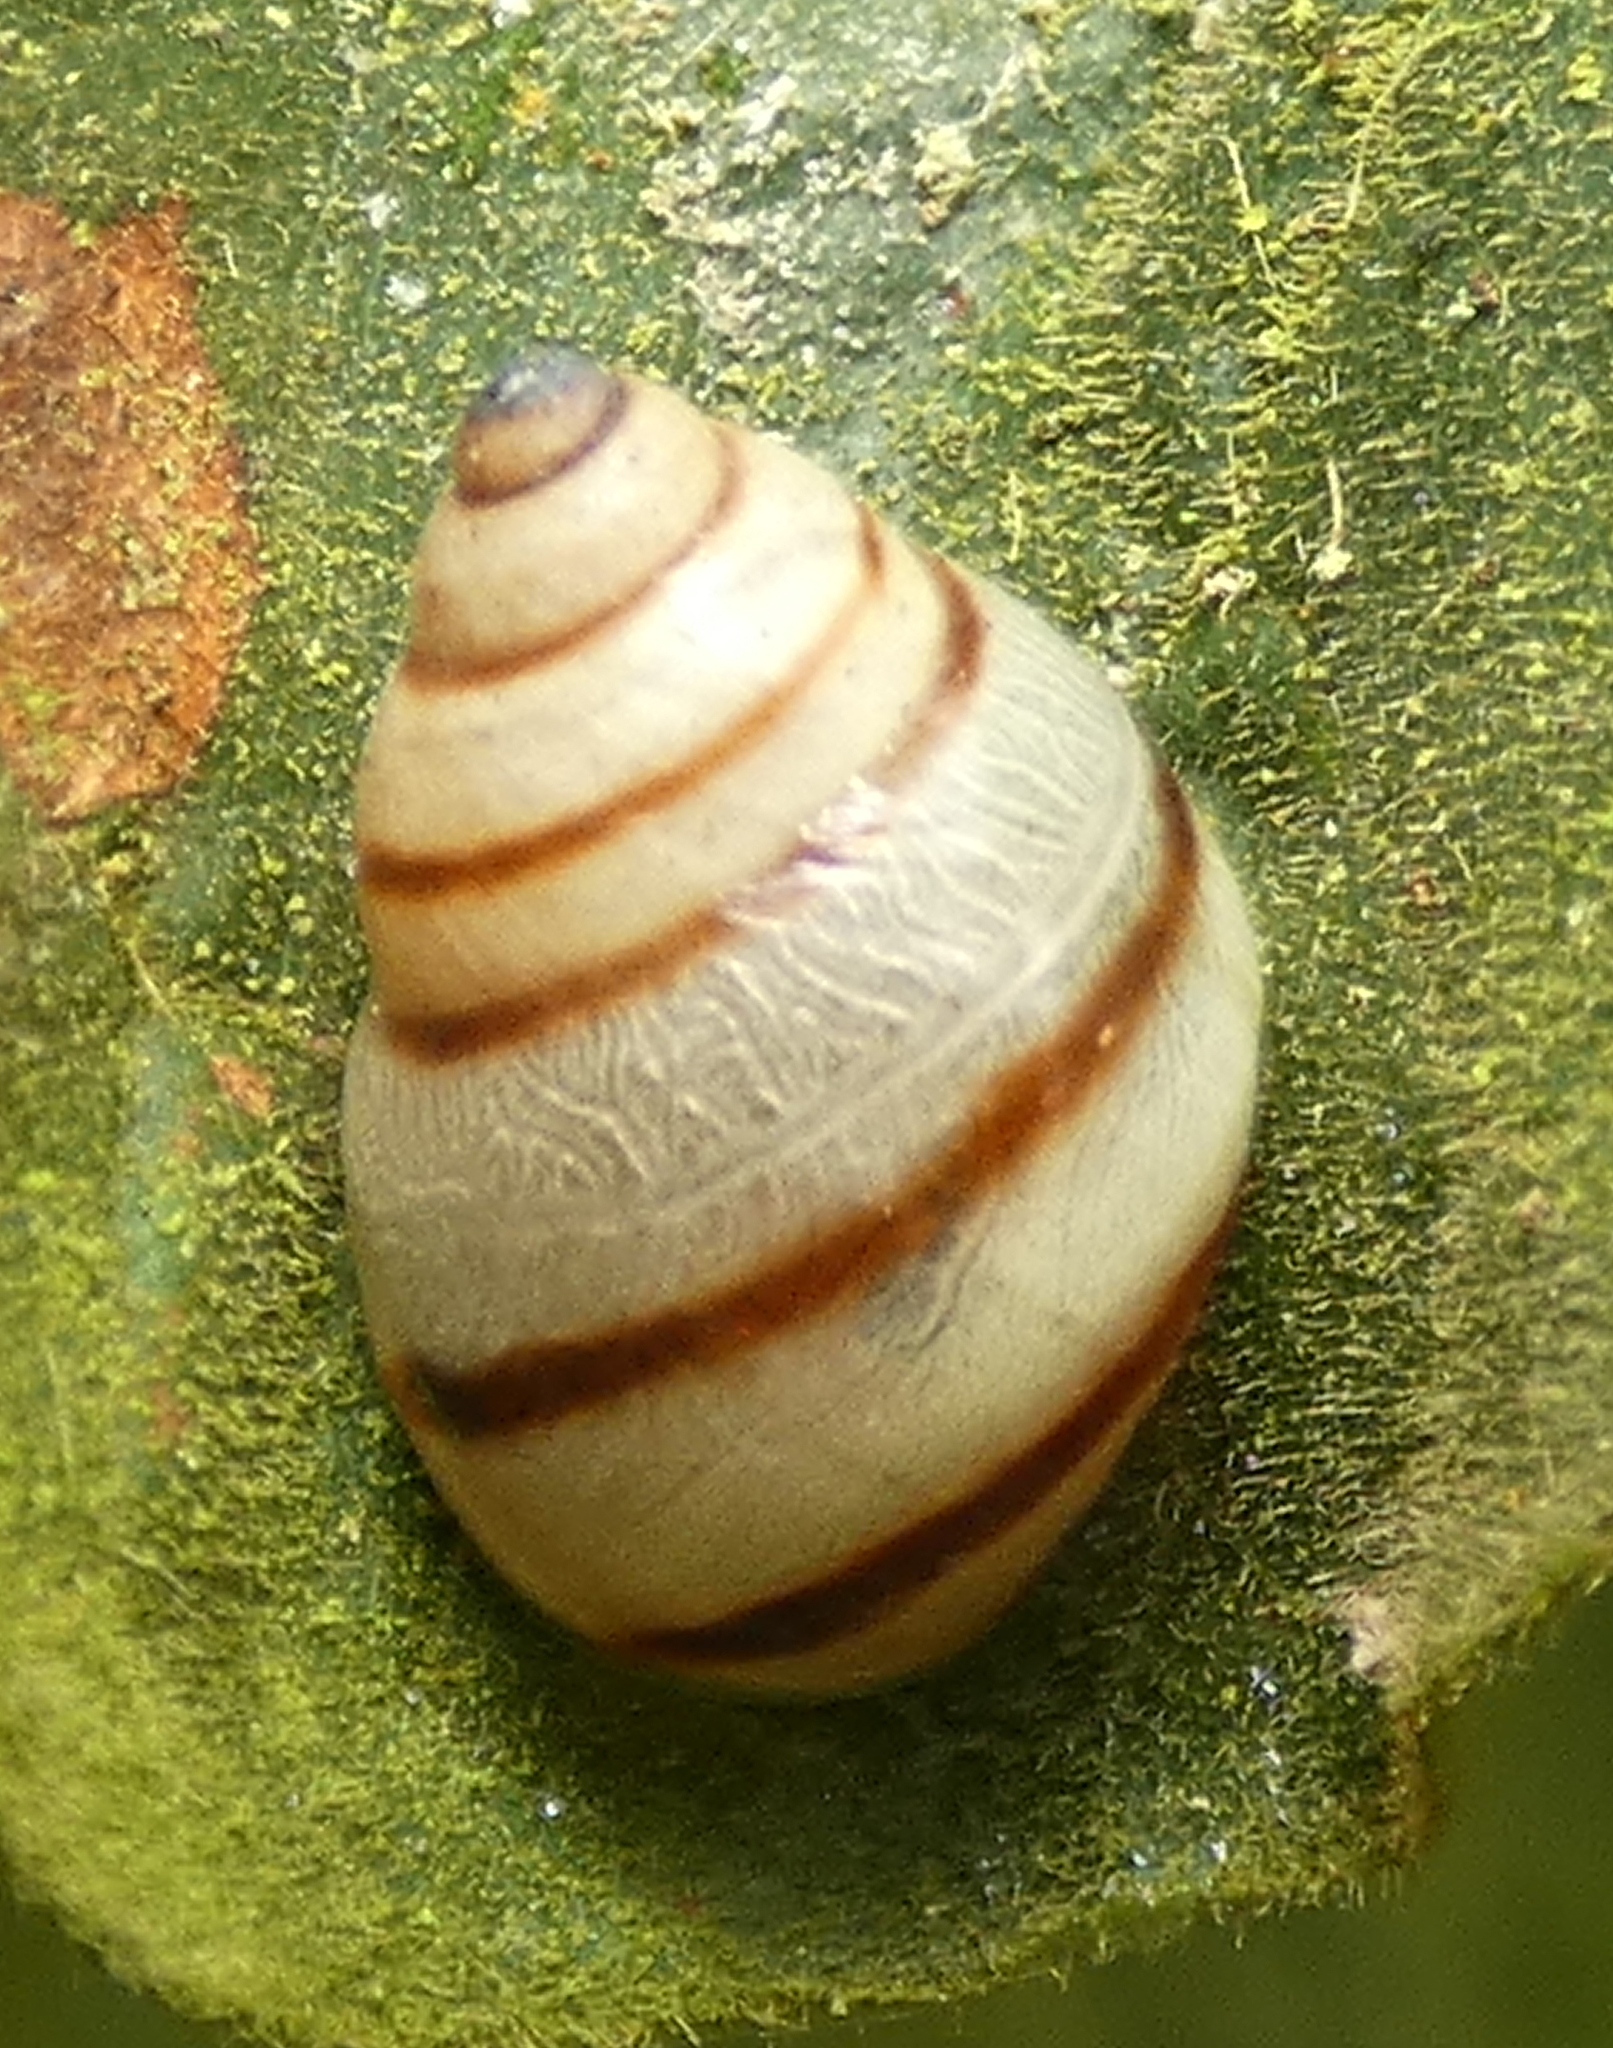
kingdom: Animalia
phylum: Mollusca
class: Gastropoda
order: Stylommatophora
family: Bulimulidae
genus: Drymaeus
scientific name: Drymaeus
